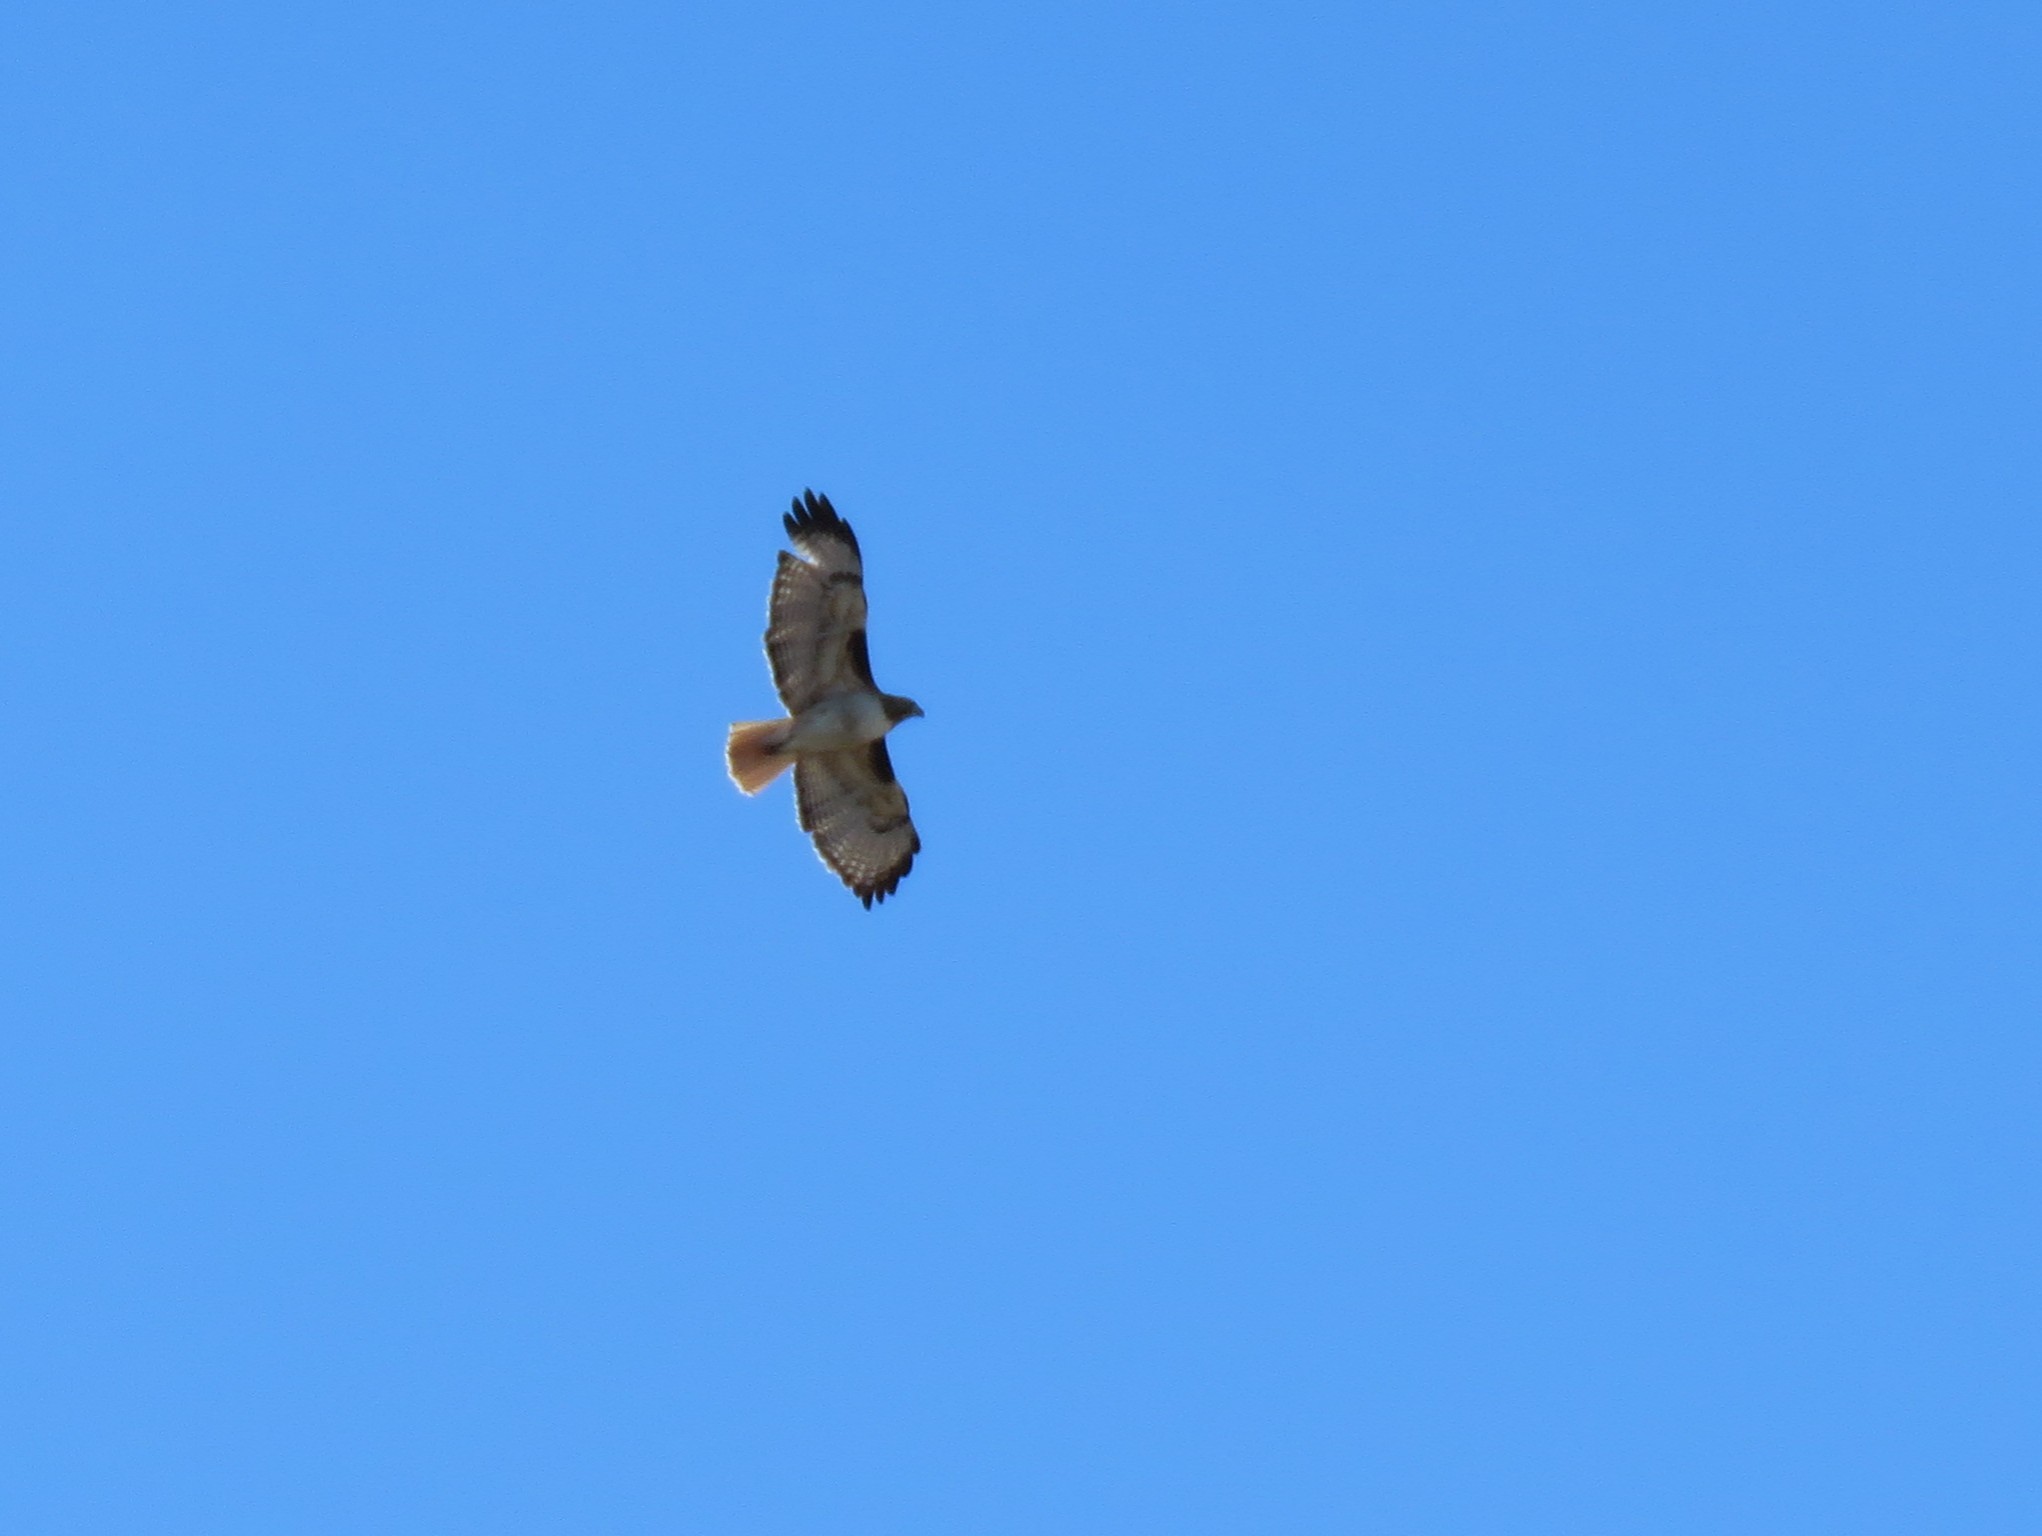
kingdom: Animalia
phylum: Chordata
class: Aves
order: Accipitriformes
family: Accipitridae
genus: Buteo
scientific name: Buteo jamaicensis
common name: Red-tailed hawk
